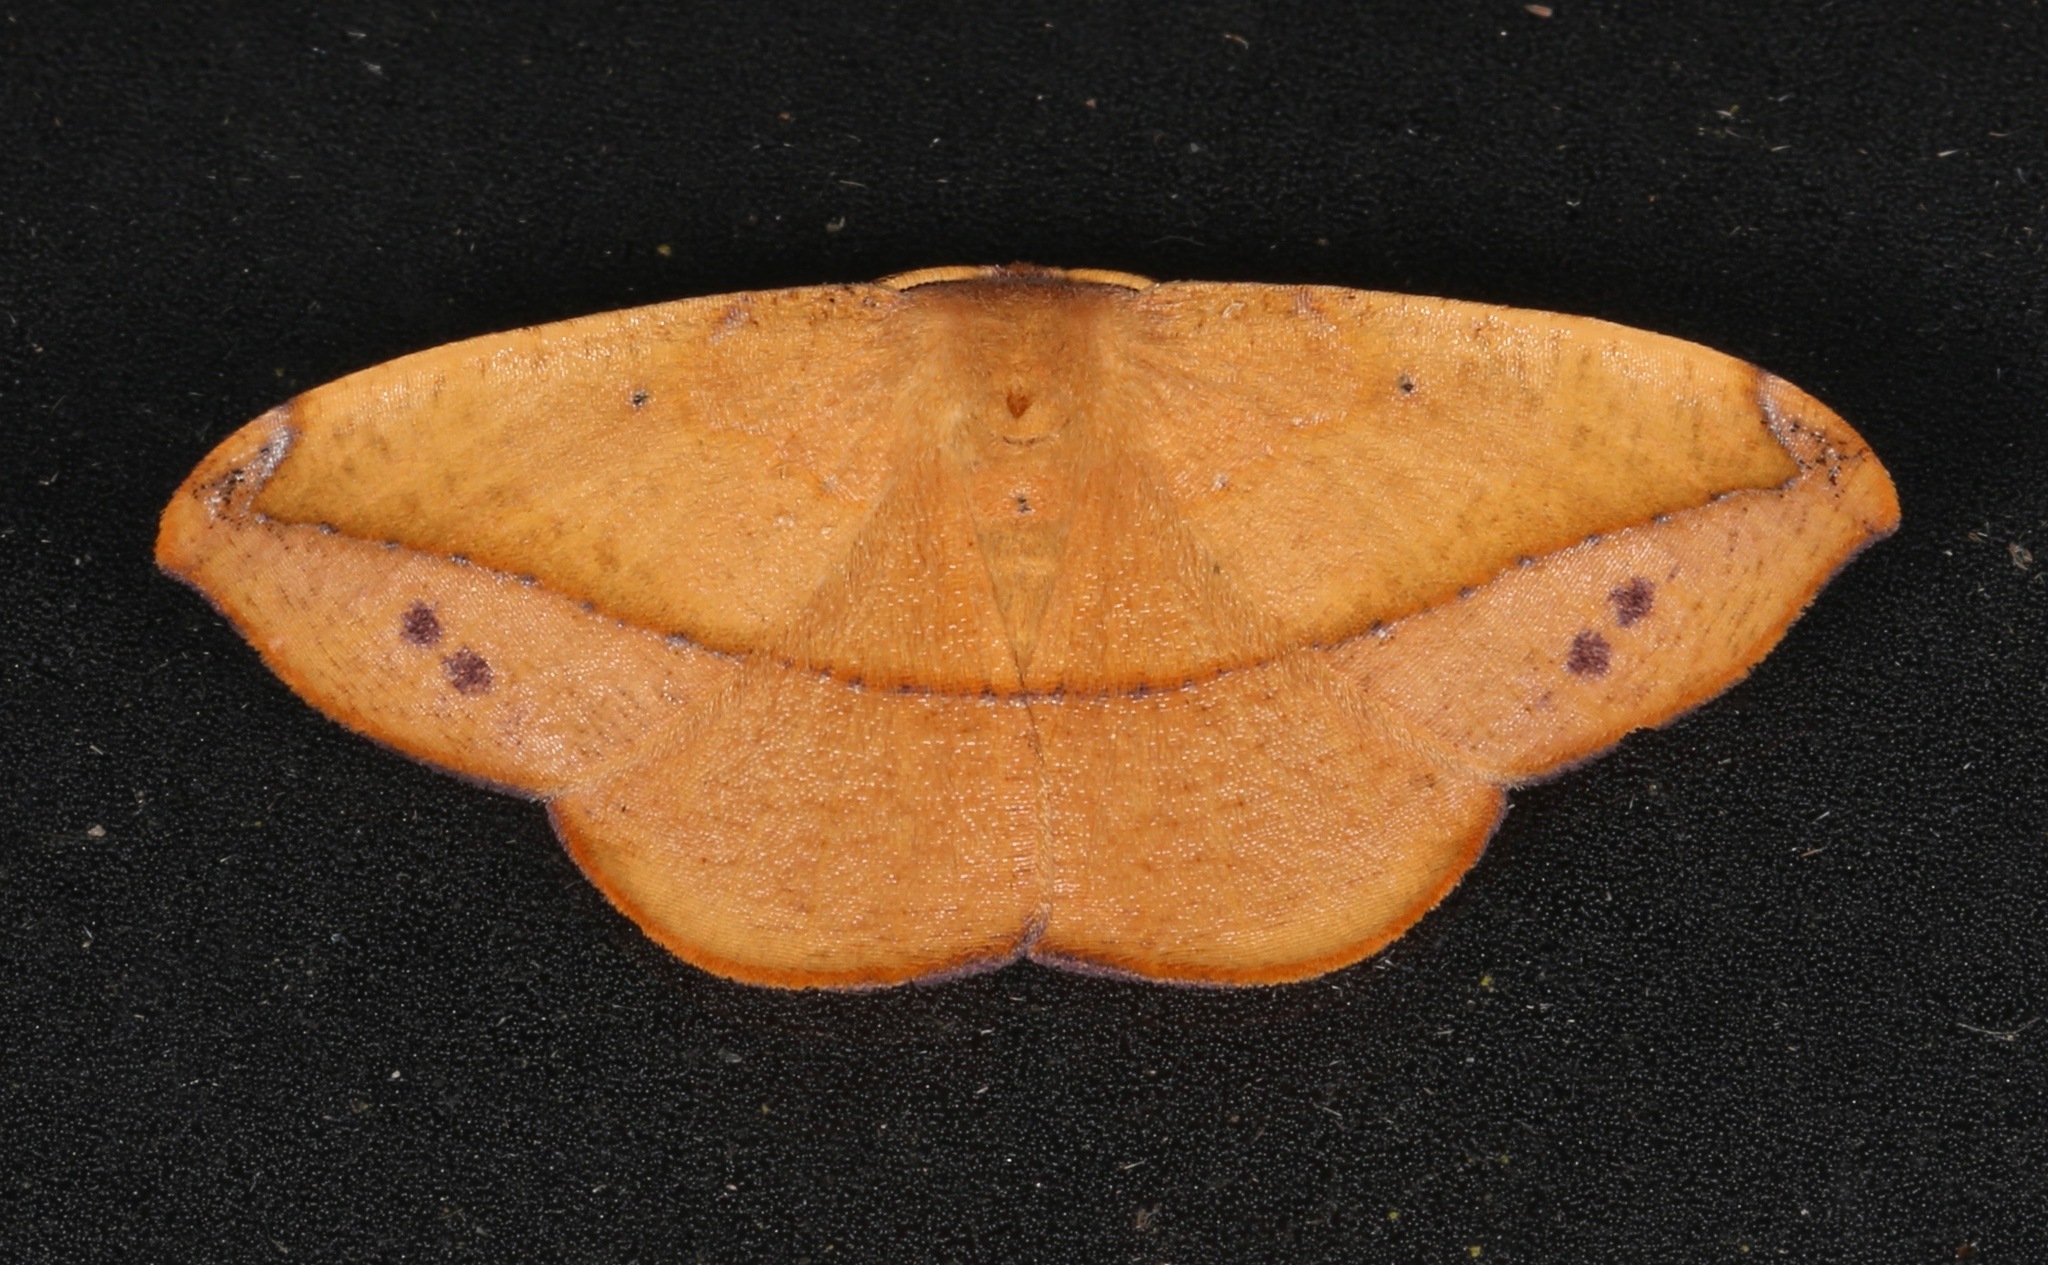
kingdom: Animalia
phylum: Arthropoda
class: Insecta
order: Lepidoptera
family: Geometridae
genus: Patalene
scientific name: Patalene olyzonaria
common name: Juniper geometer moth
